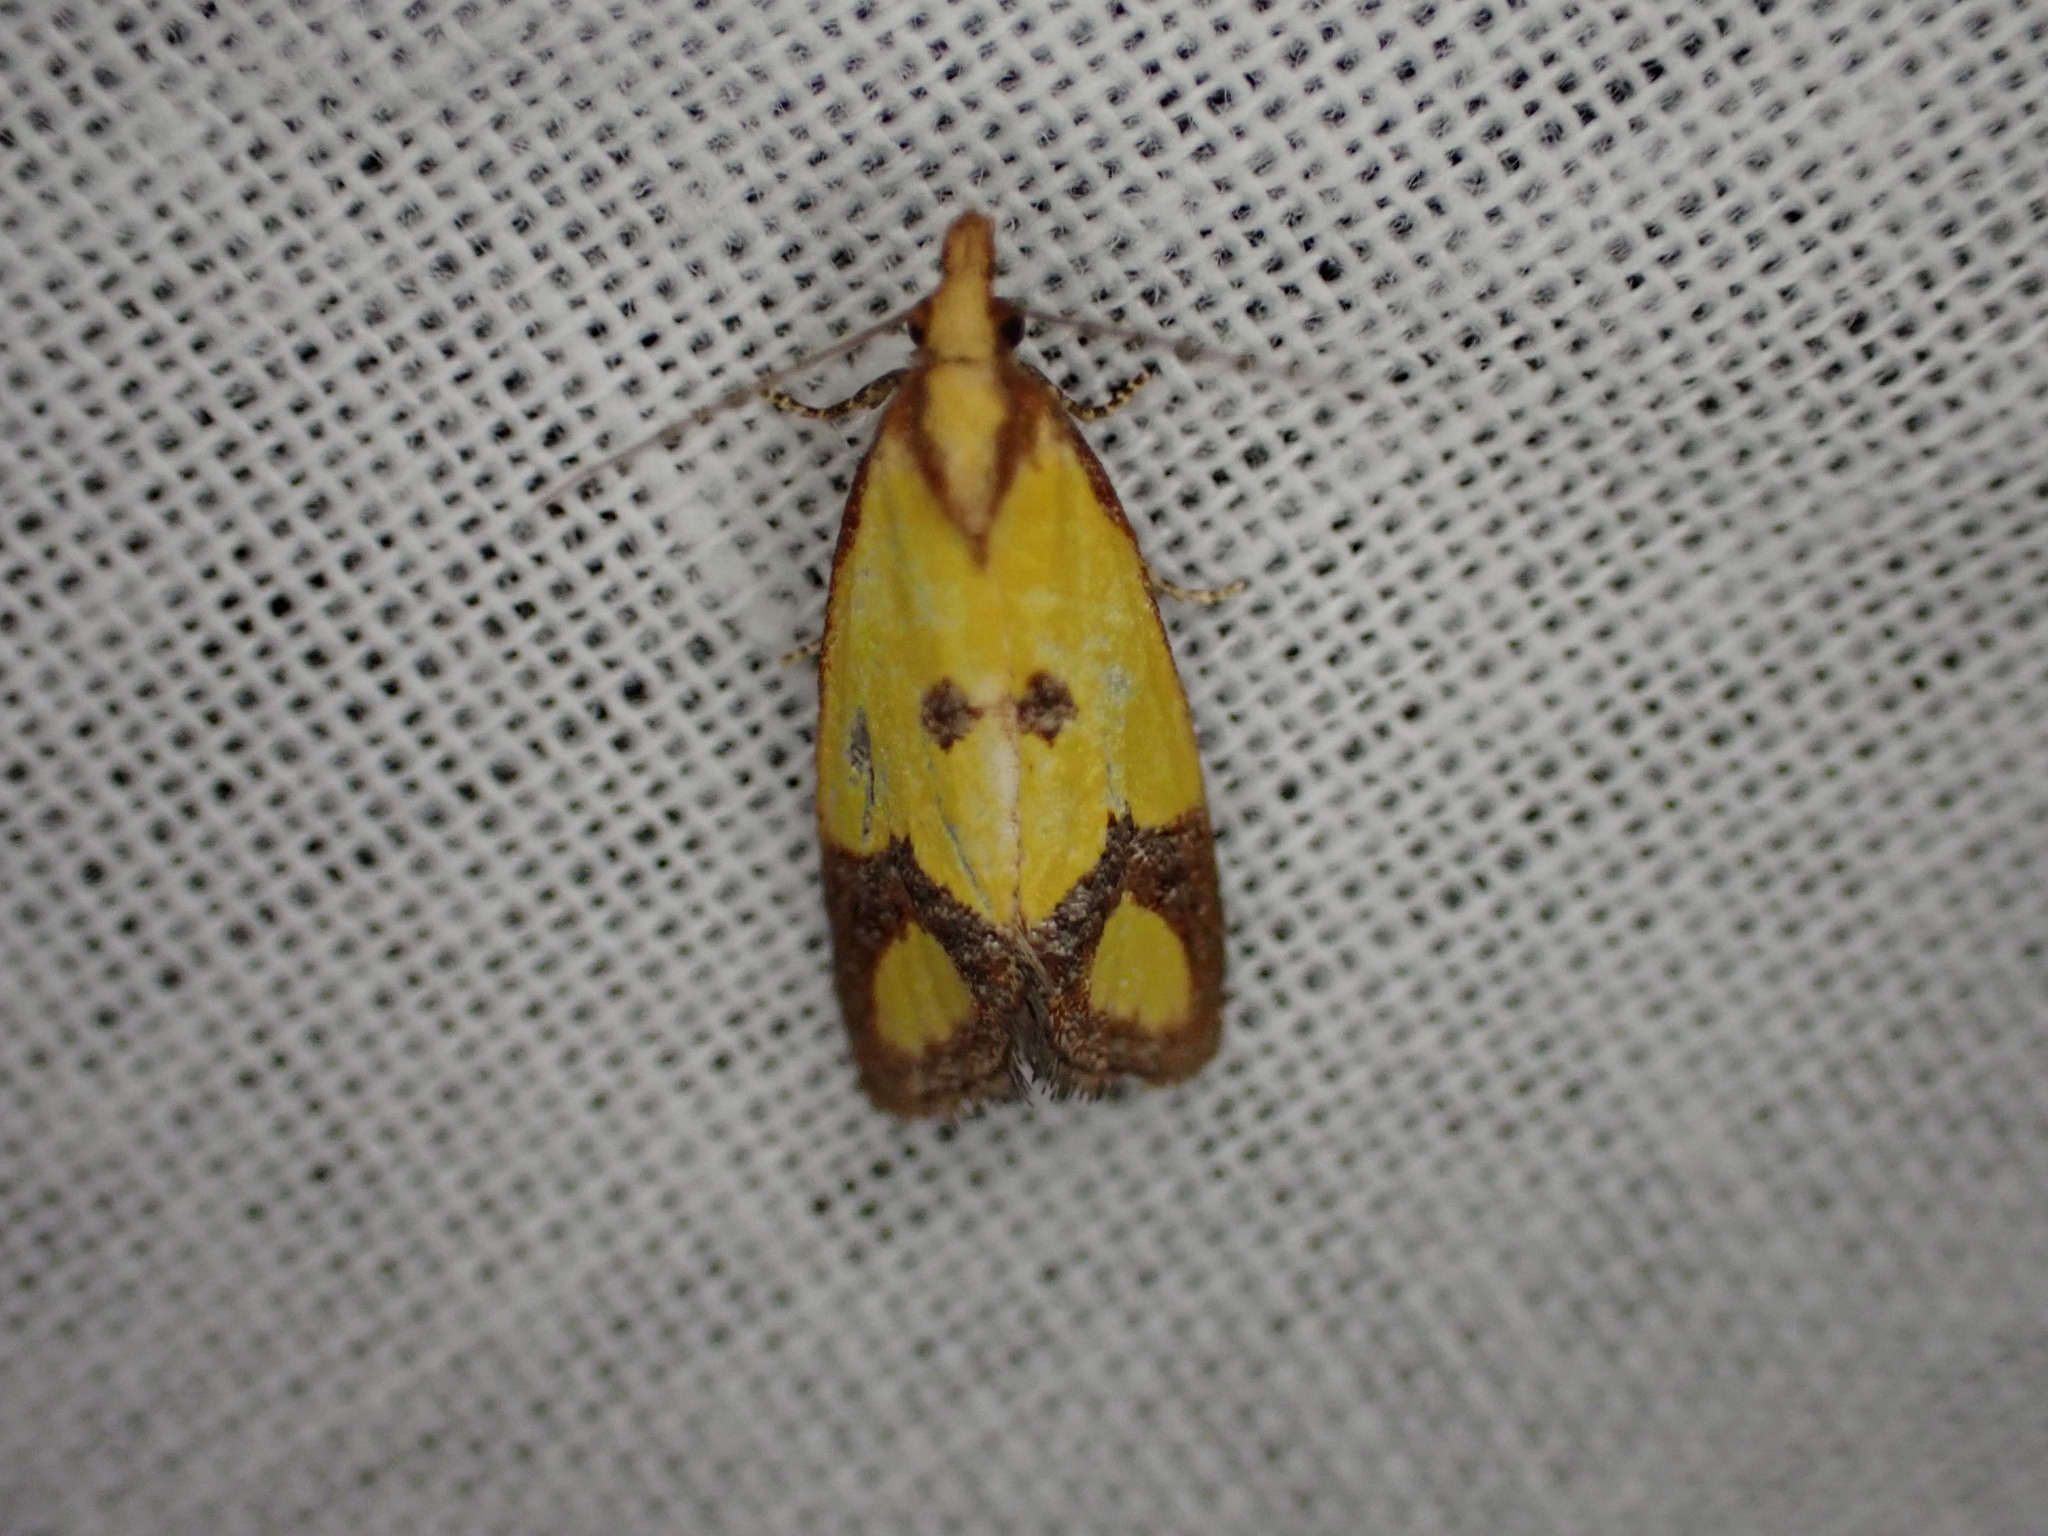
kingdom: Animalia
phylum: Arthropoda
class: Insecta
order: Lepidoptera
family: Tortricidae
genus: Agapeta
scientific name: Agapeta zoegana
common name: Sulfur knapweed root moth
